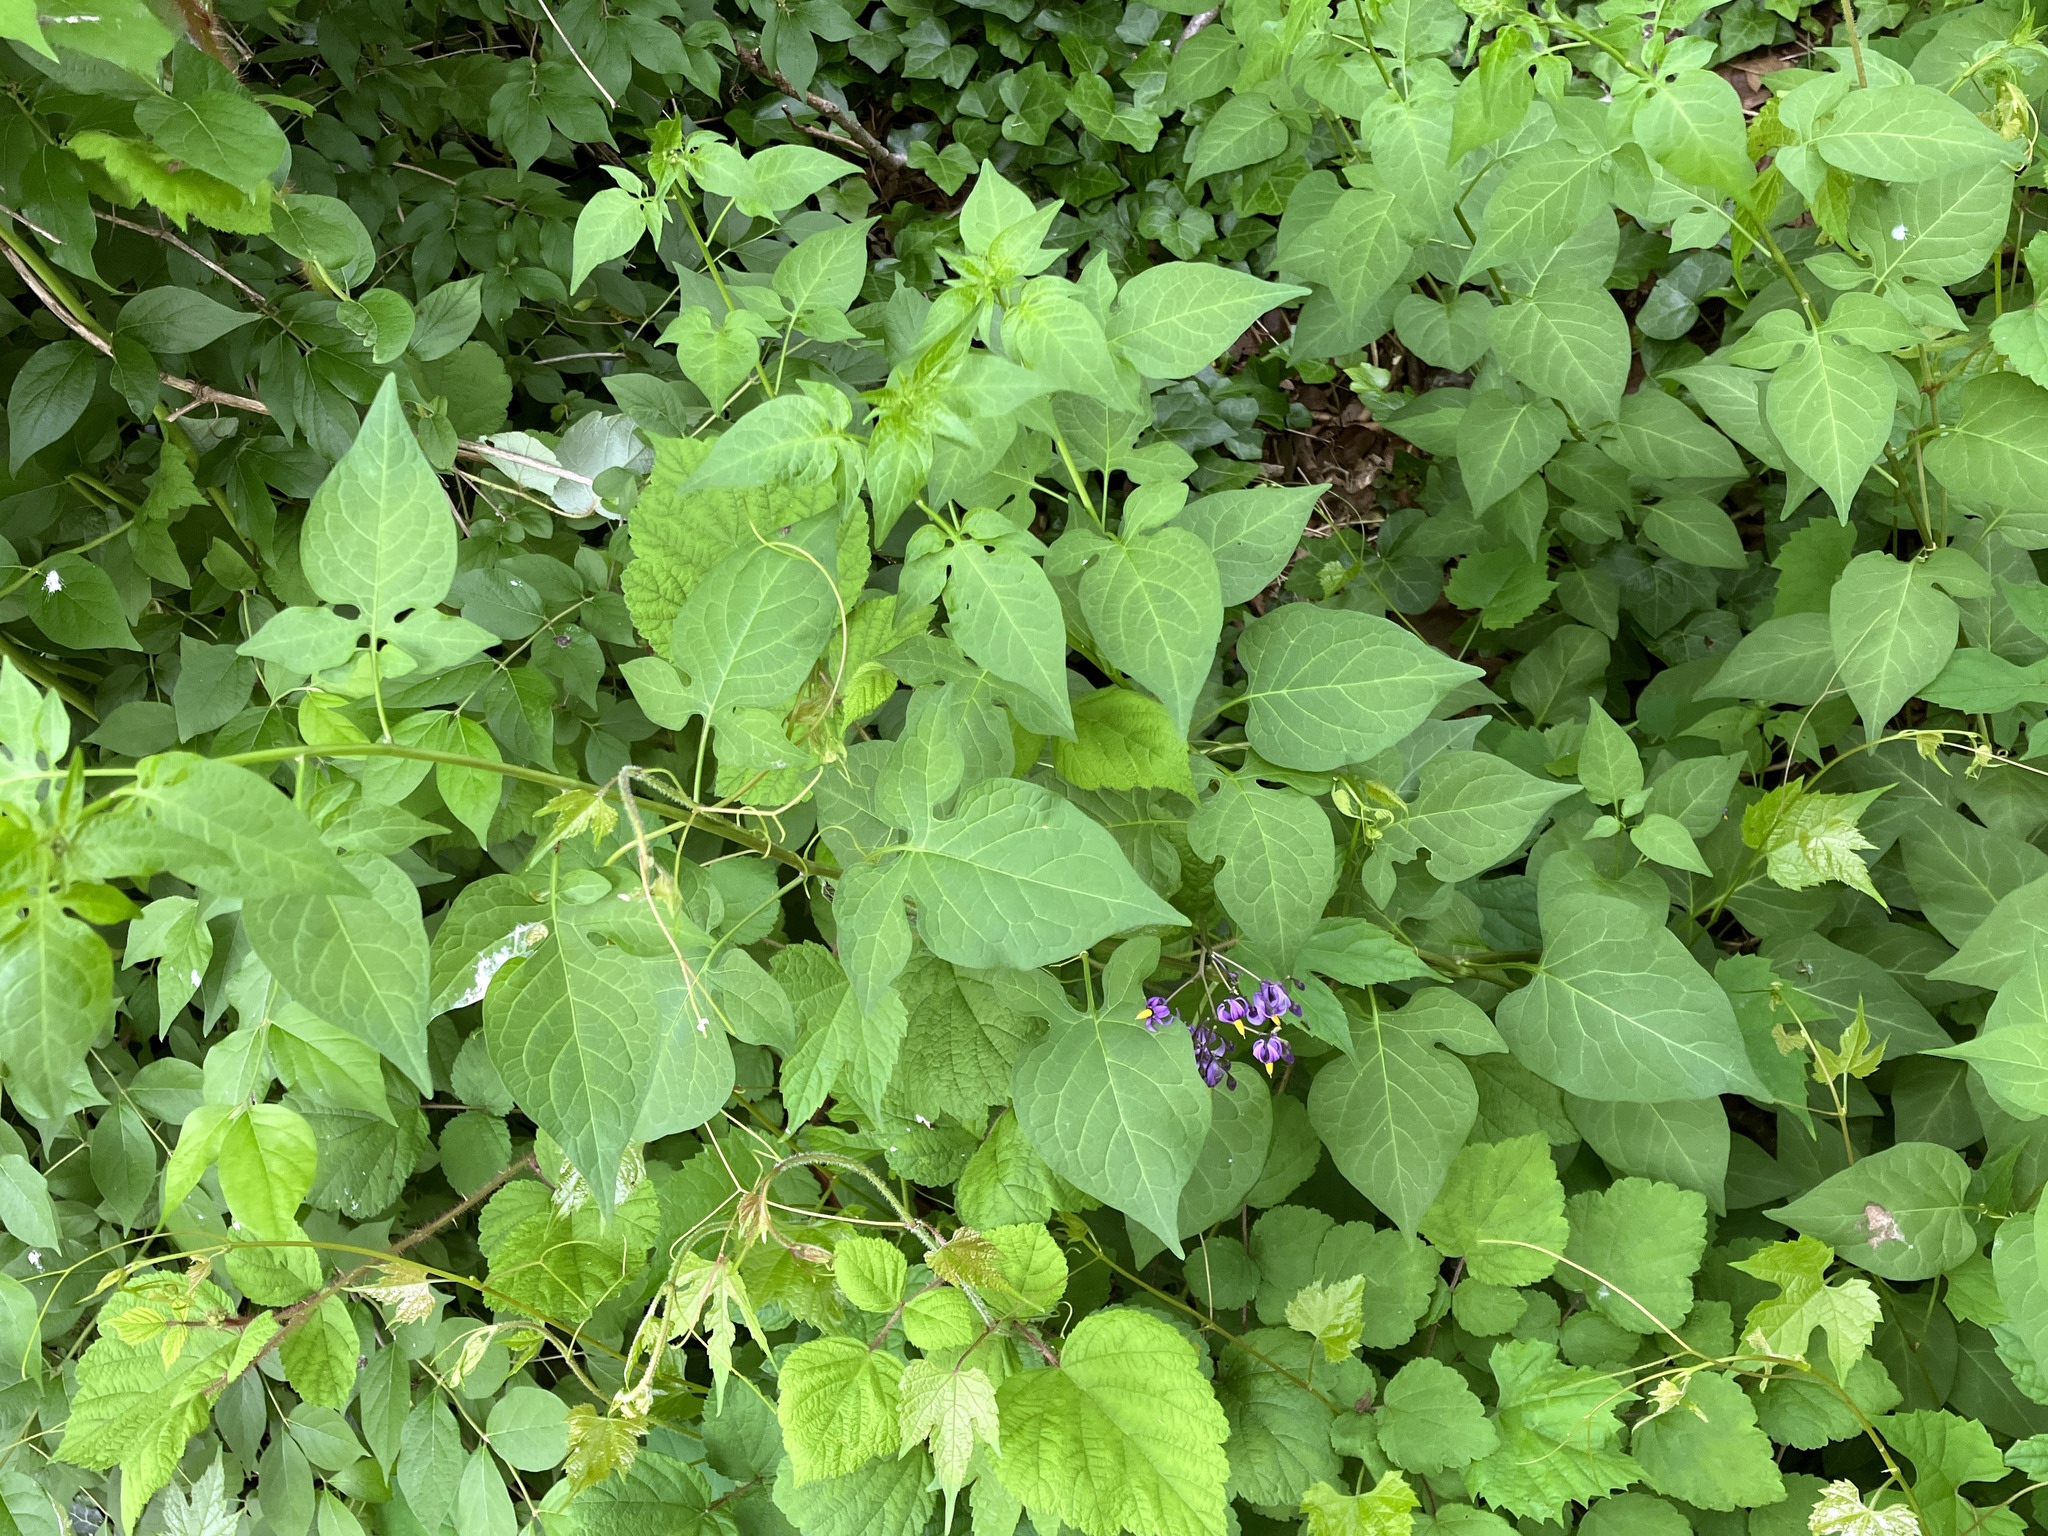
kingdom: Plantae
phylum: Tracheophyta
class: Magnoliopsida
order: Solanales
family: Solanaceae
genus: Solanum
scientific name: Solanum dulcamara
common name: Climbing nightshade
